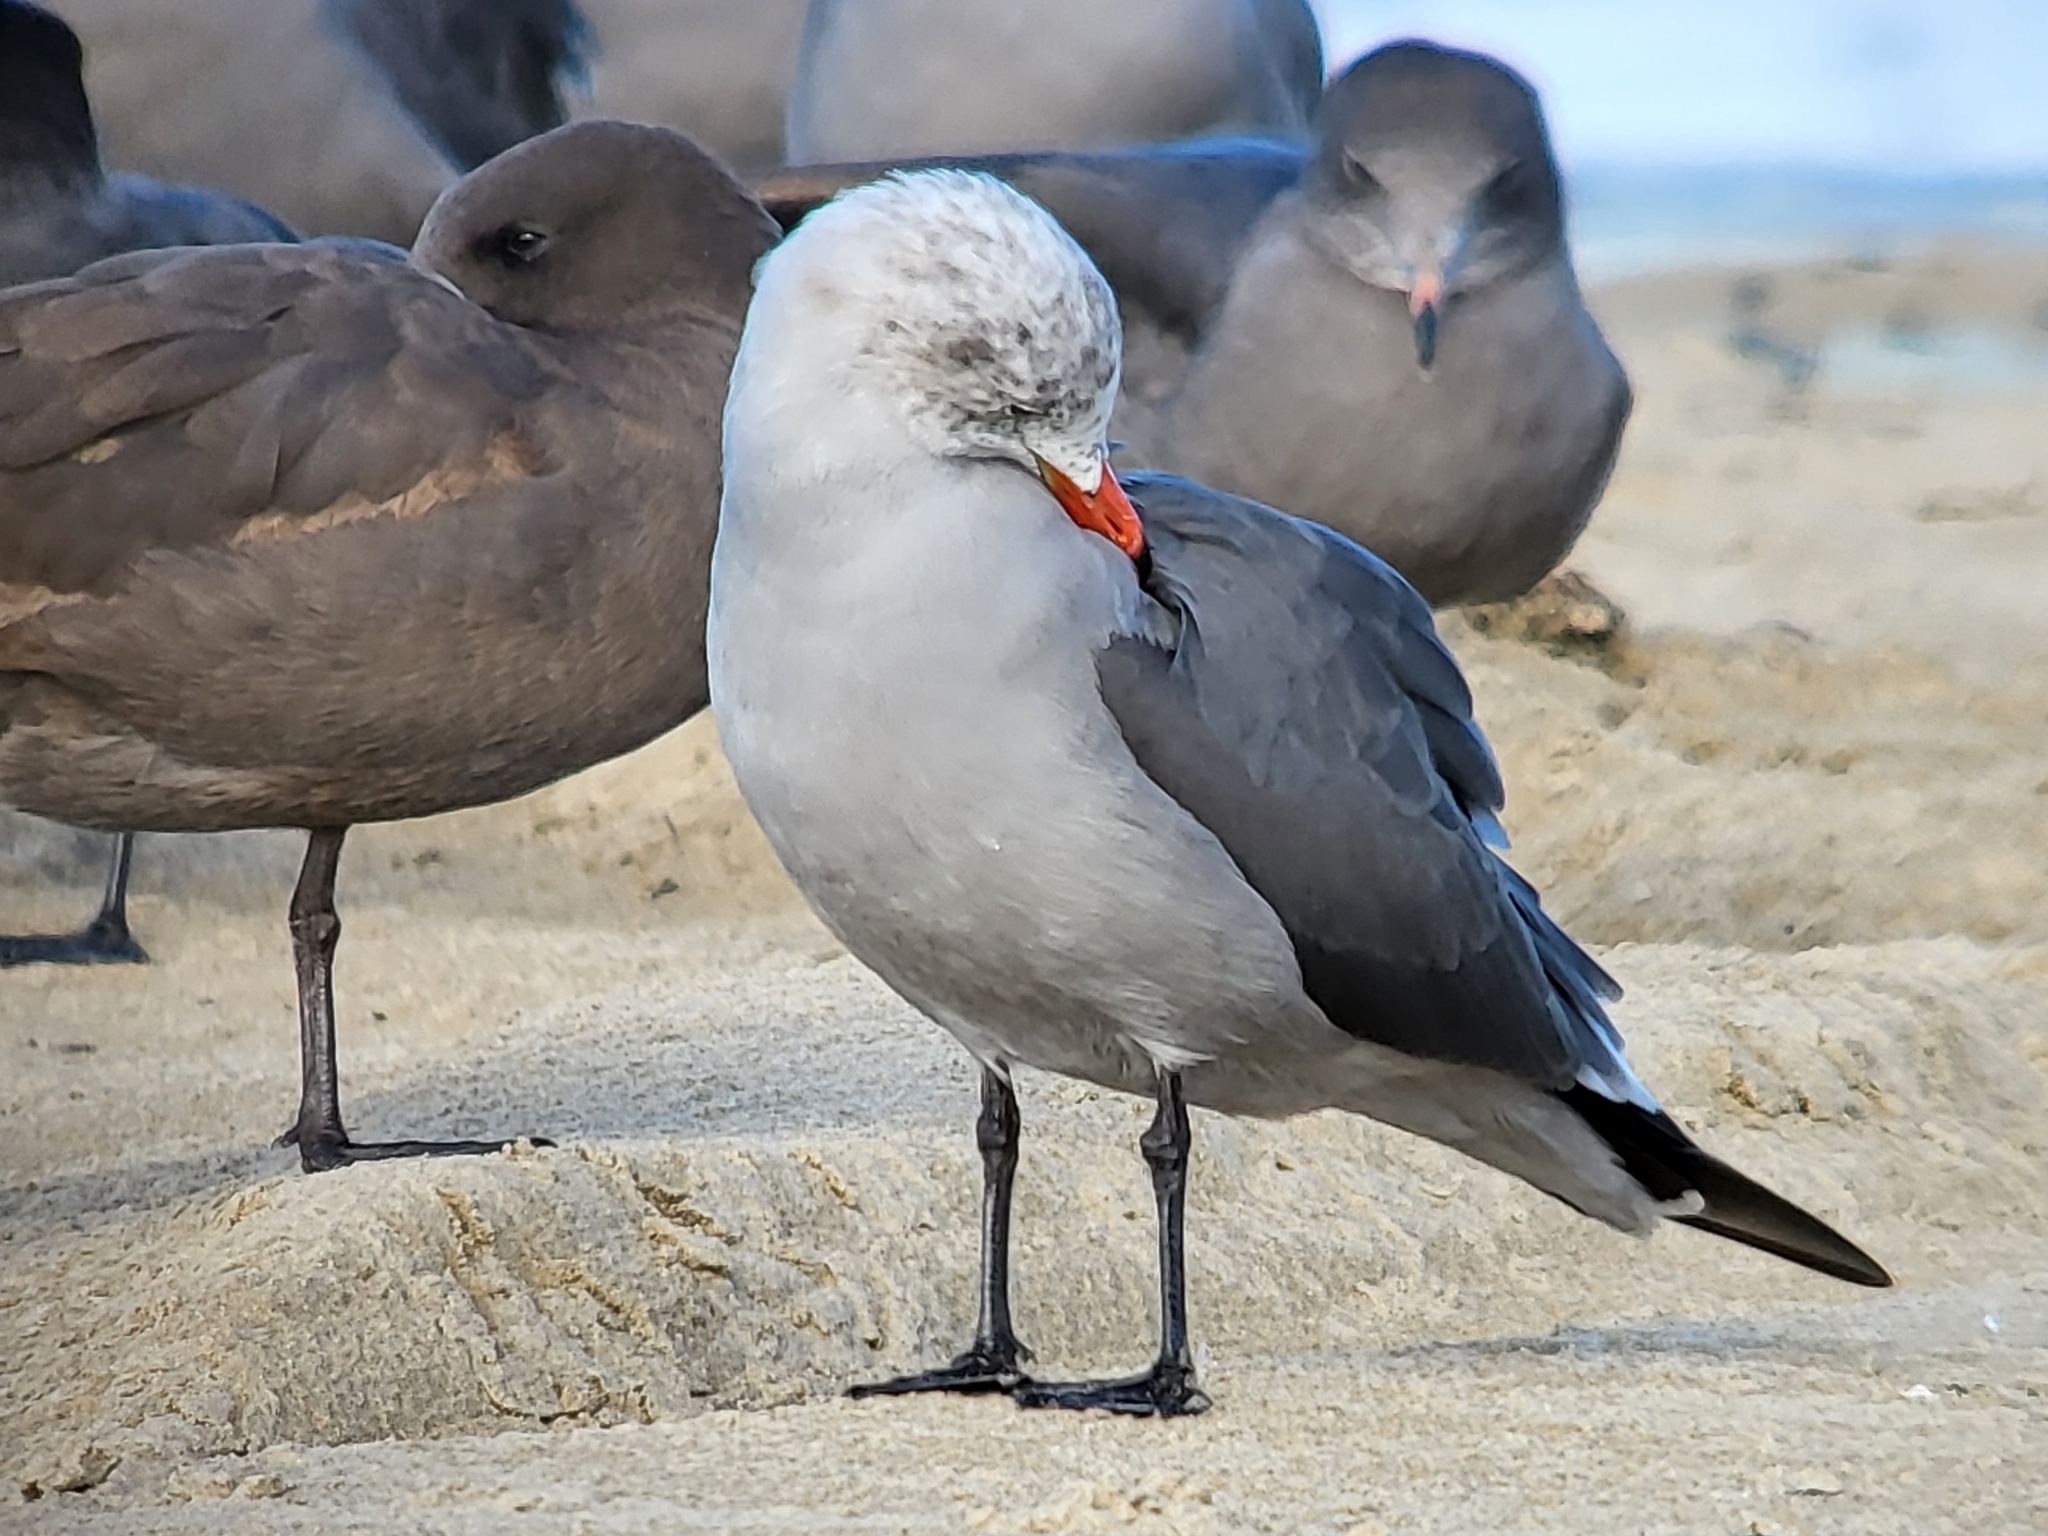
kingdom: Animalia
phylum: Chordata
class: Aves
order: Charadriiformes
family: Laridae
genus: Larus
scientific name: Larus heermanni
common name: Heermann's gull
